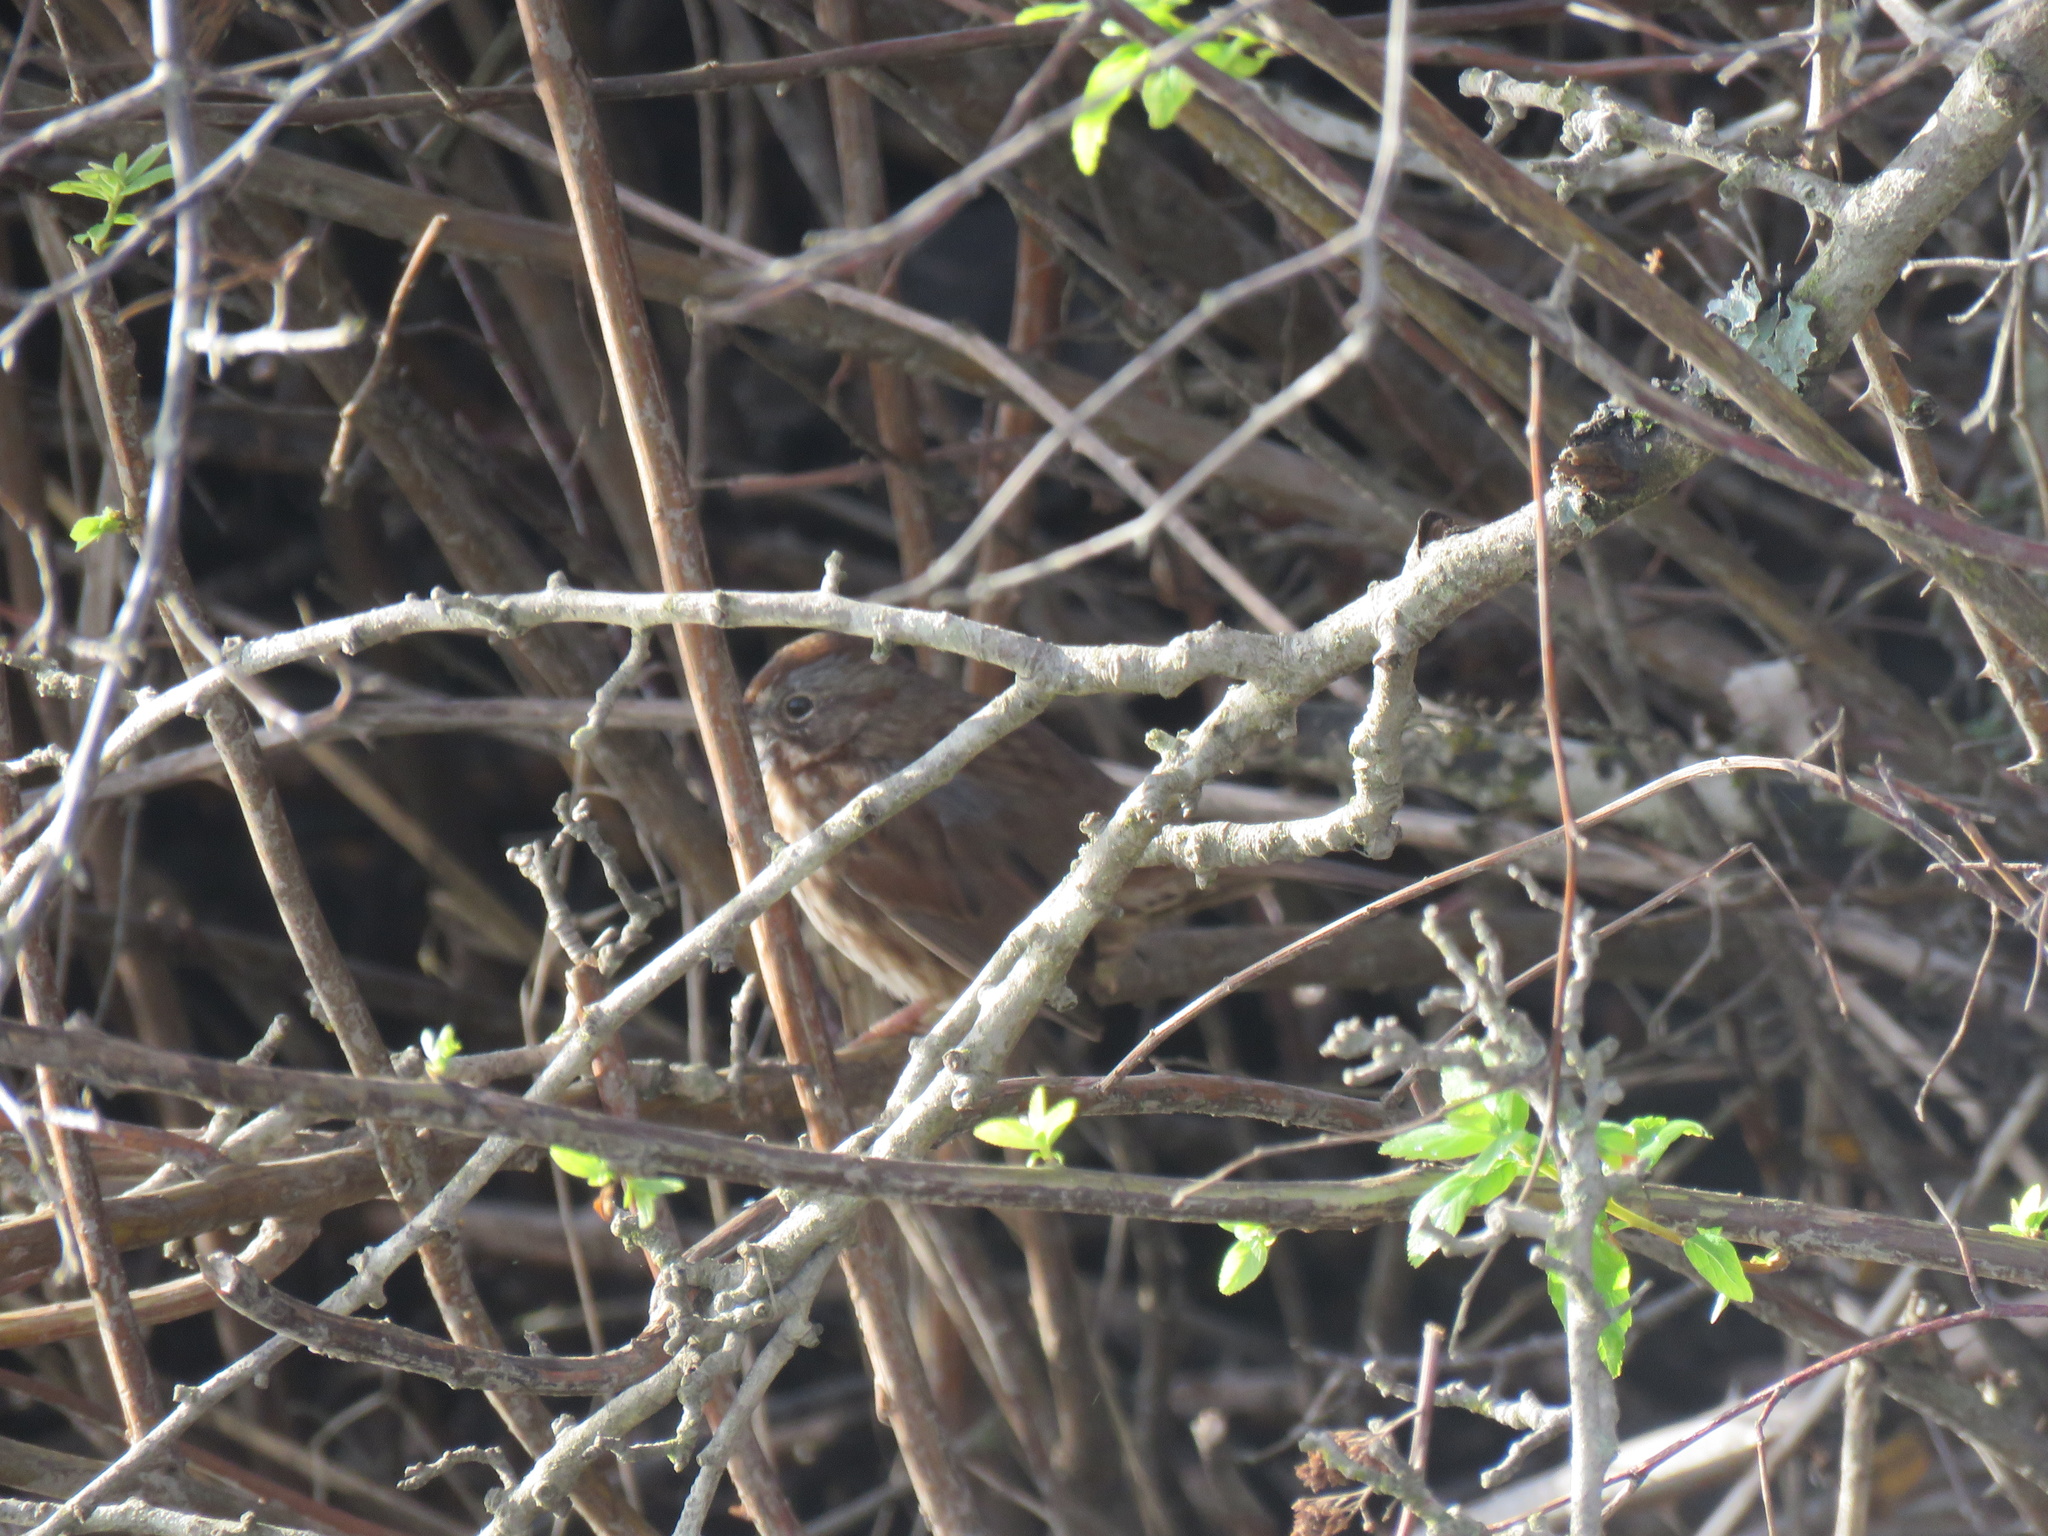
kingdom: Animalia
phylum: Chordata
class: Aves
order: Passeriformes
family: Passerellidae
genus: Melospiza
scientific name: Melospiza melodia
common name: Song sparrow
